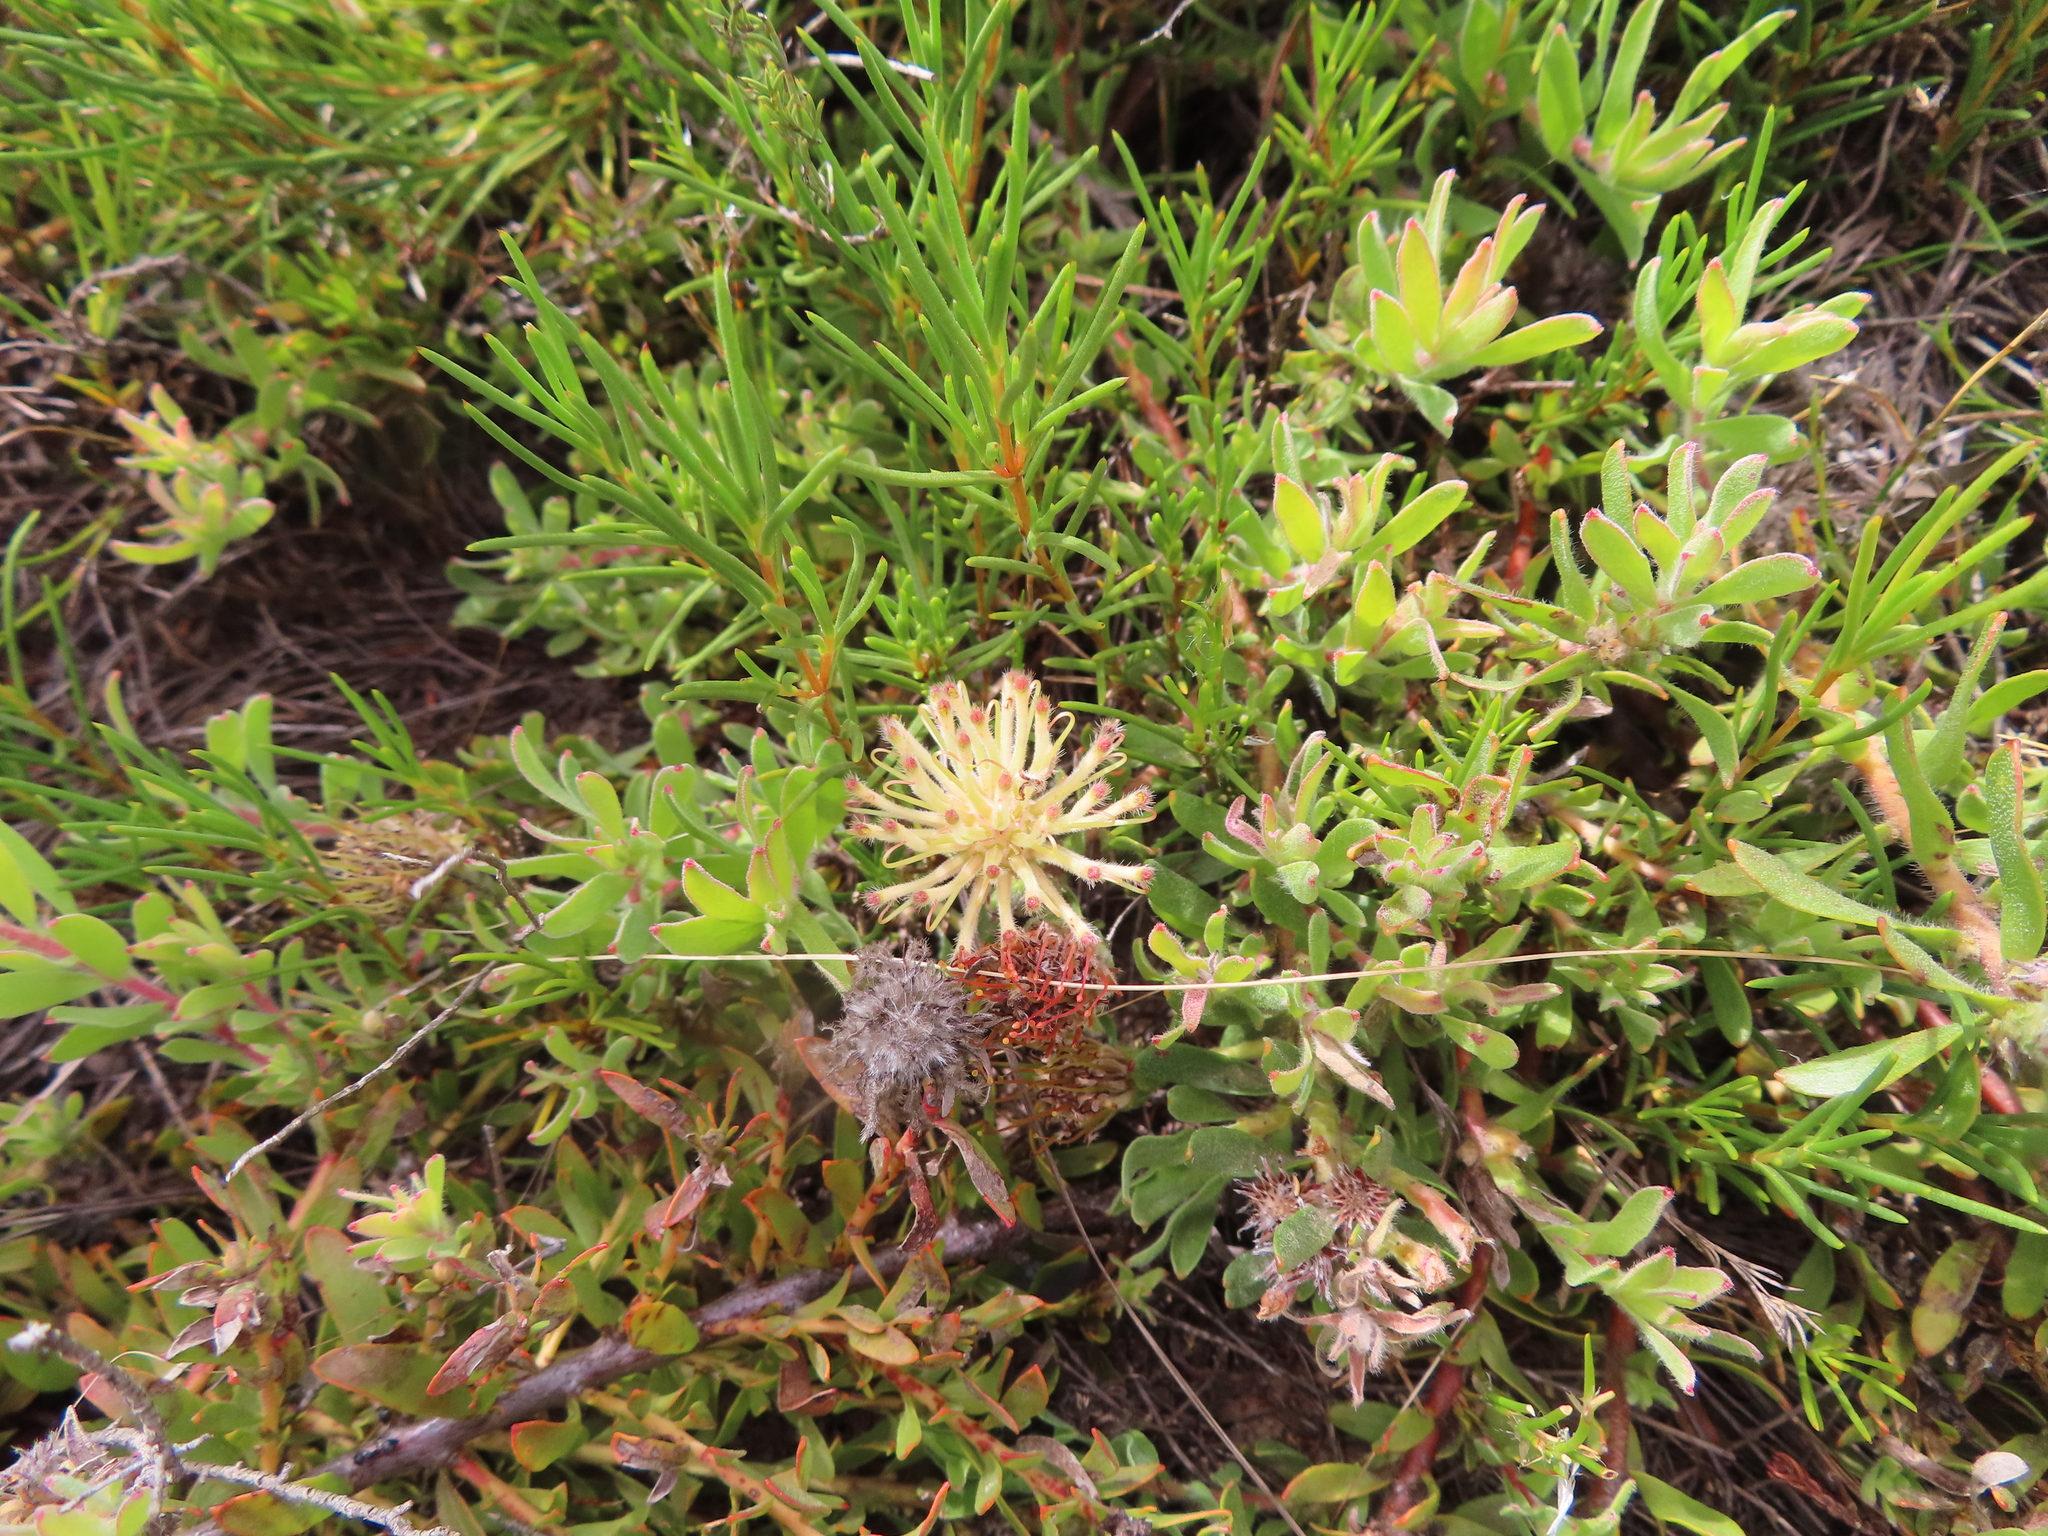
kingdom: Plantae
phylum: Tracheophyta
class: Magnoliopsida
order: Proteales
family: Proteaceae
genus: Leucospermum
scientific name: Leucospermum heterophyllum
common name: Trident pincushion
